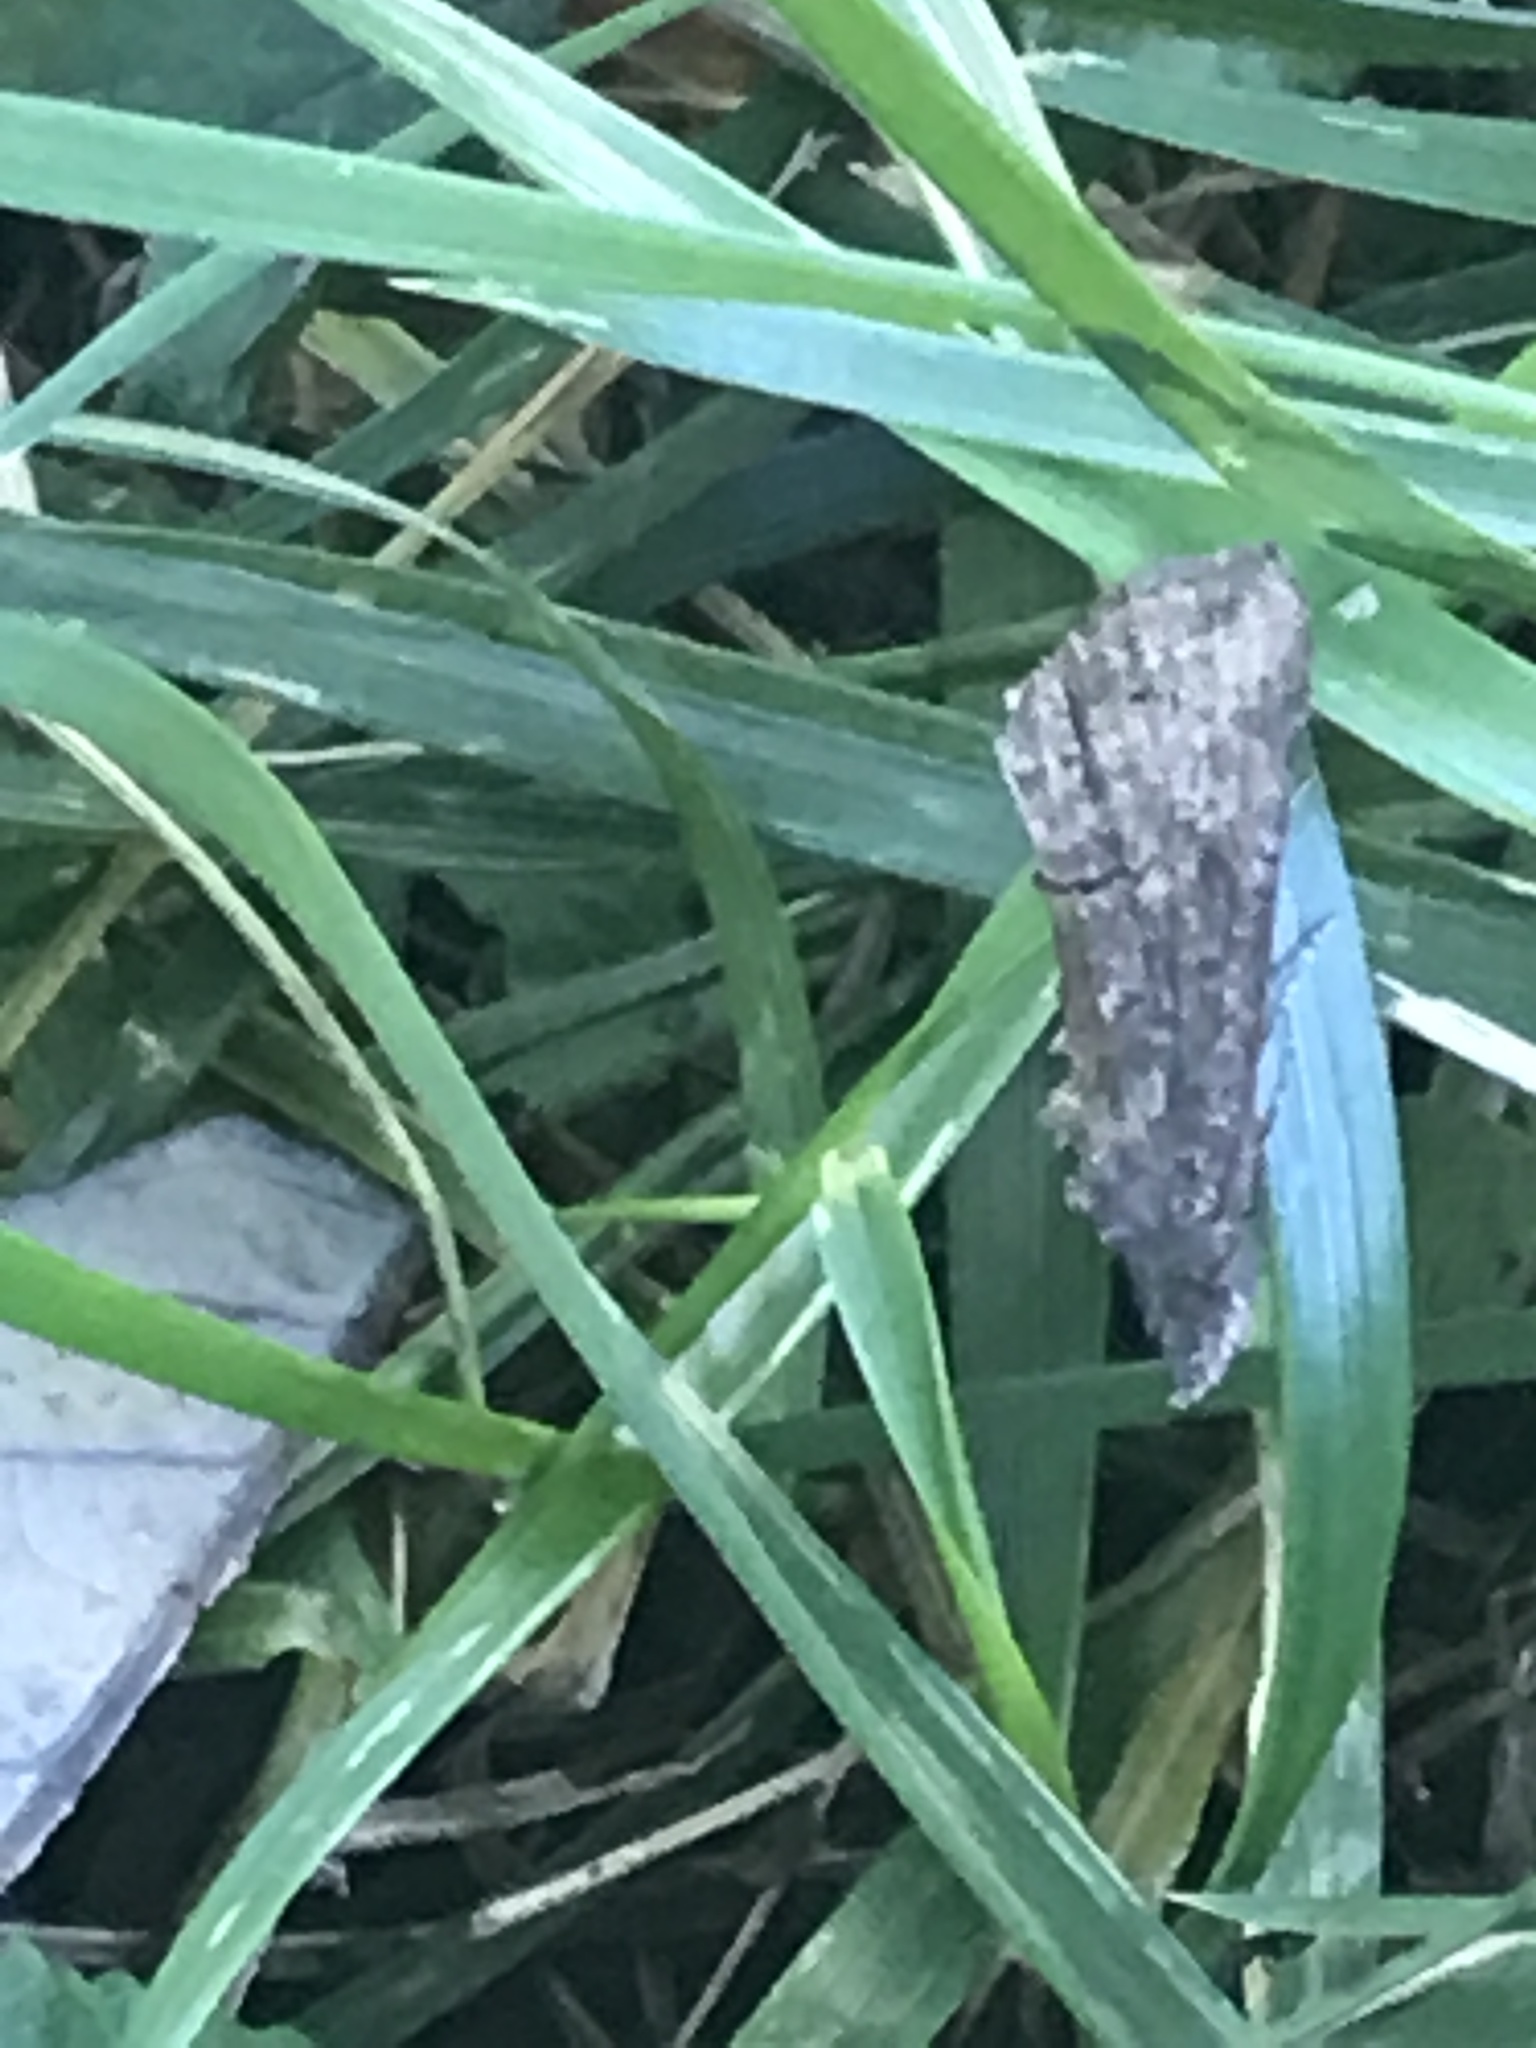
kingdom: Animalia
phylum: Arthropoda
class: Insecta
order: Lepidoptera
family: Erebidae
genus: Hypena
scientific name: Hypena scabra
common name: Green cloverworm
